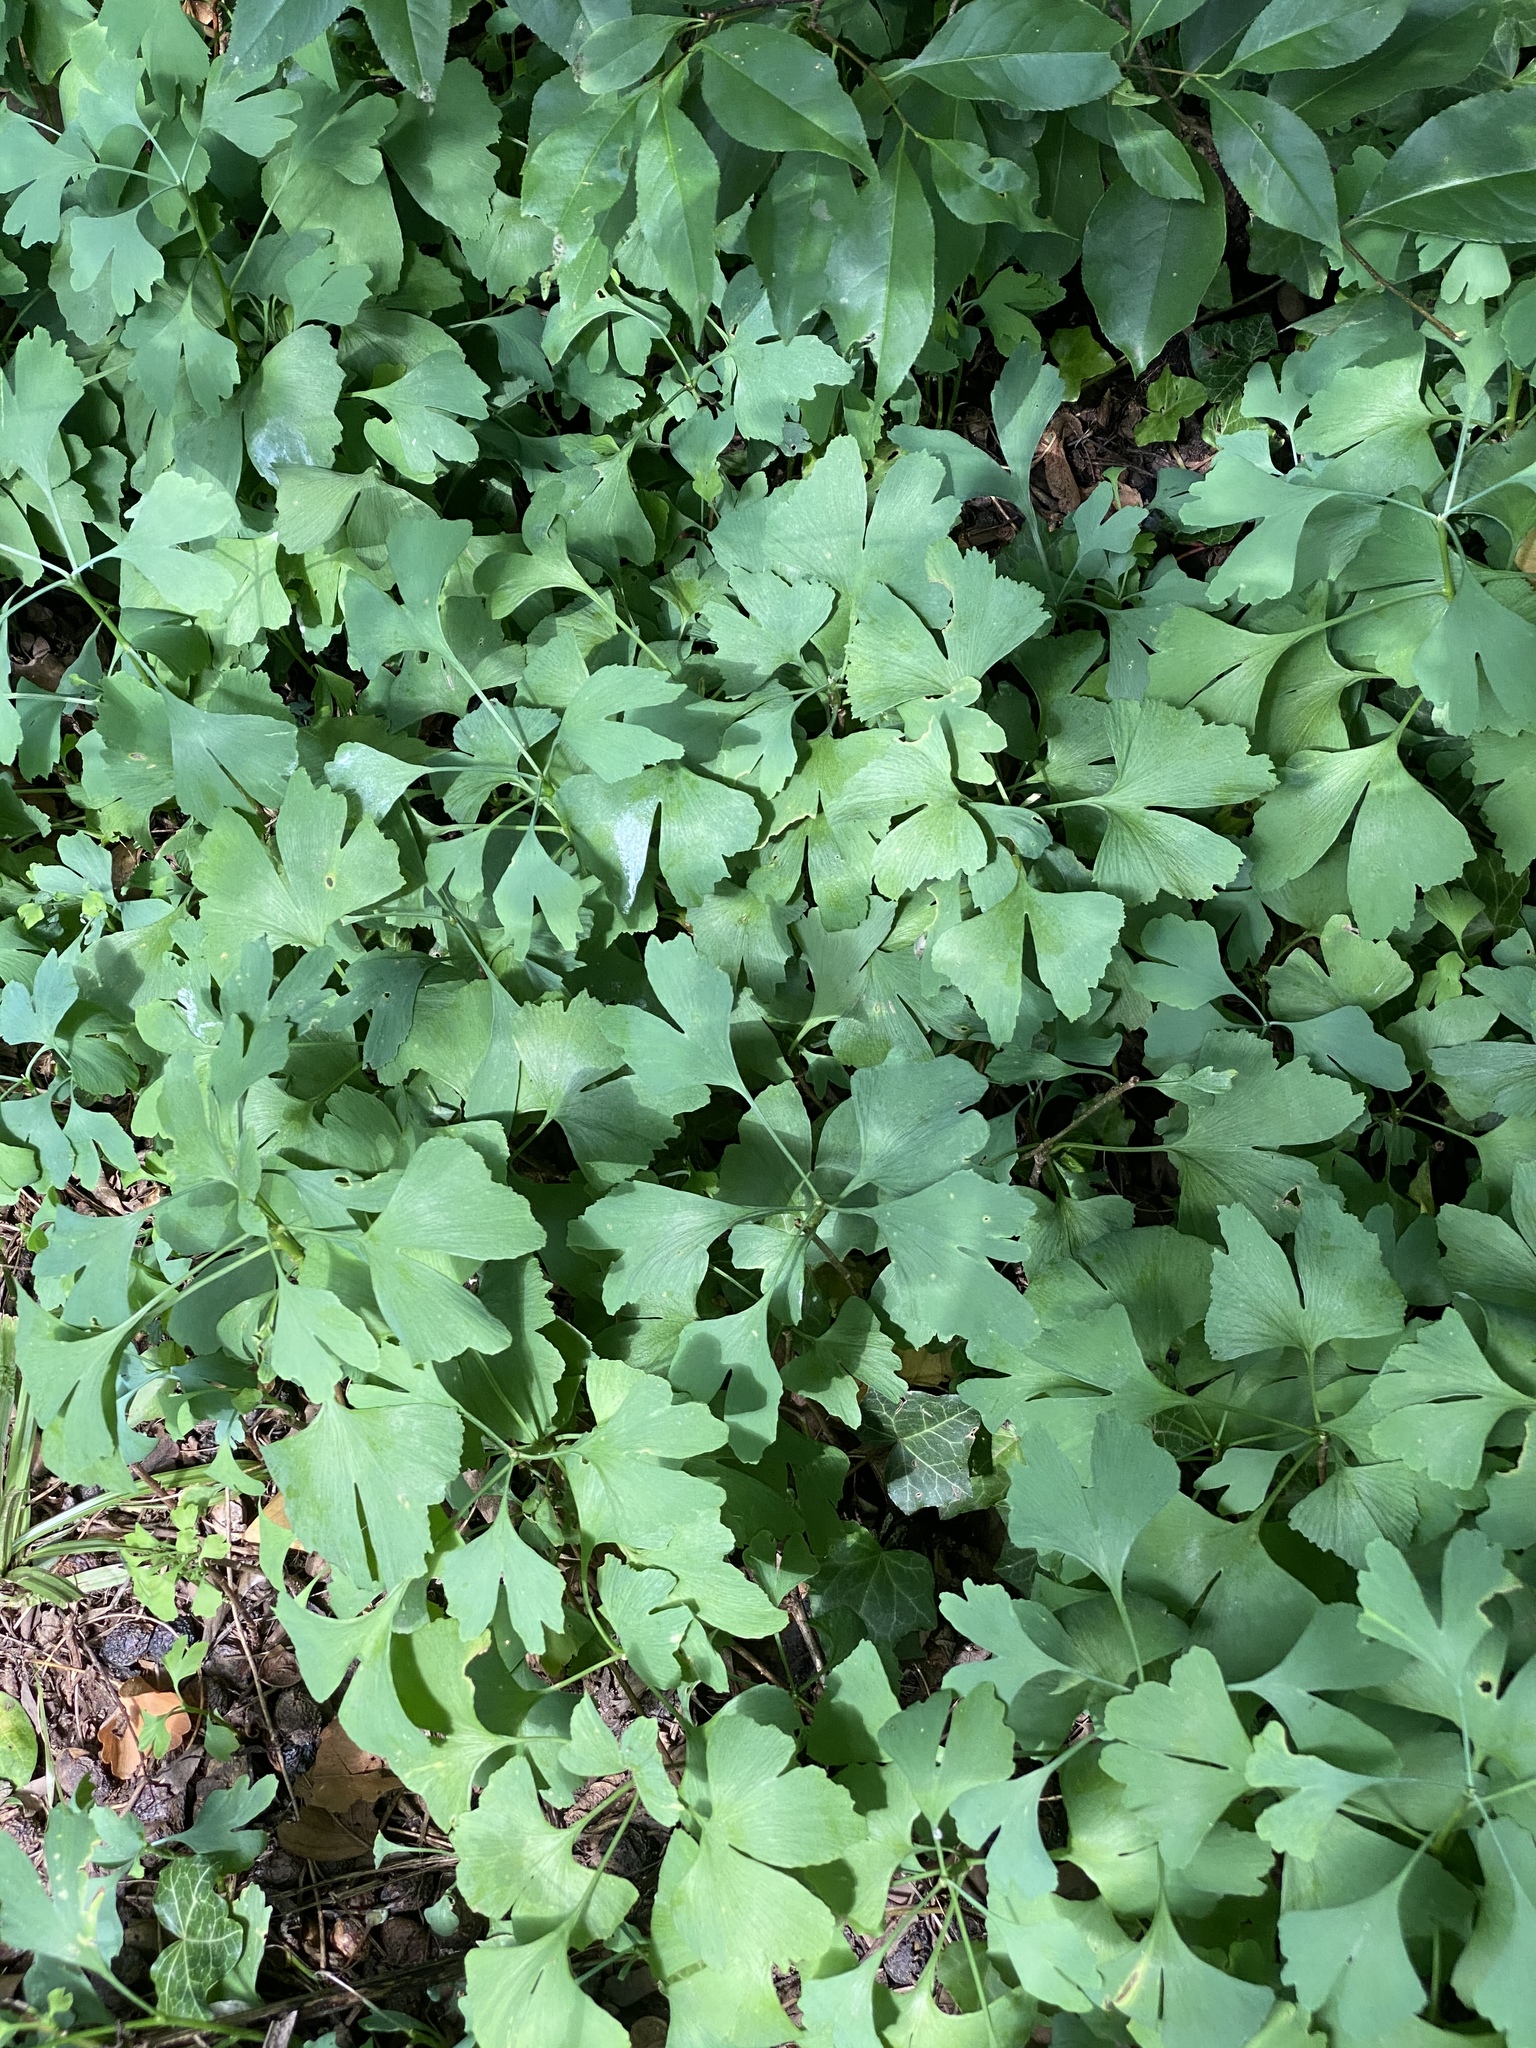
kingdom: Plantae
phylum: Tracheophyta
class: Ginkgoopsida
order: Ginkgoales
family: Ginkgoaceae
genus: Ginkgo
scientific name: Ginkgo biloba
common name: Ginkgo
